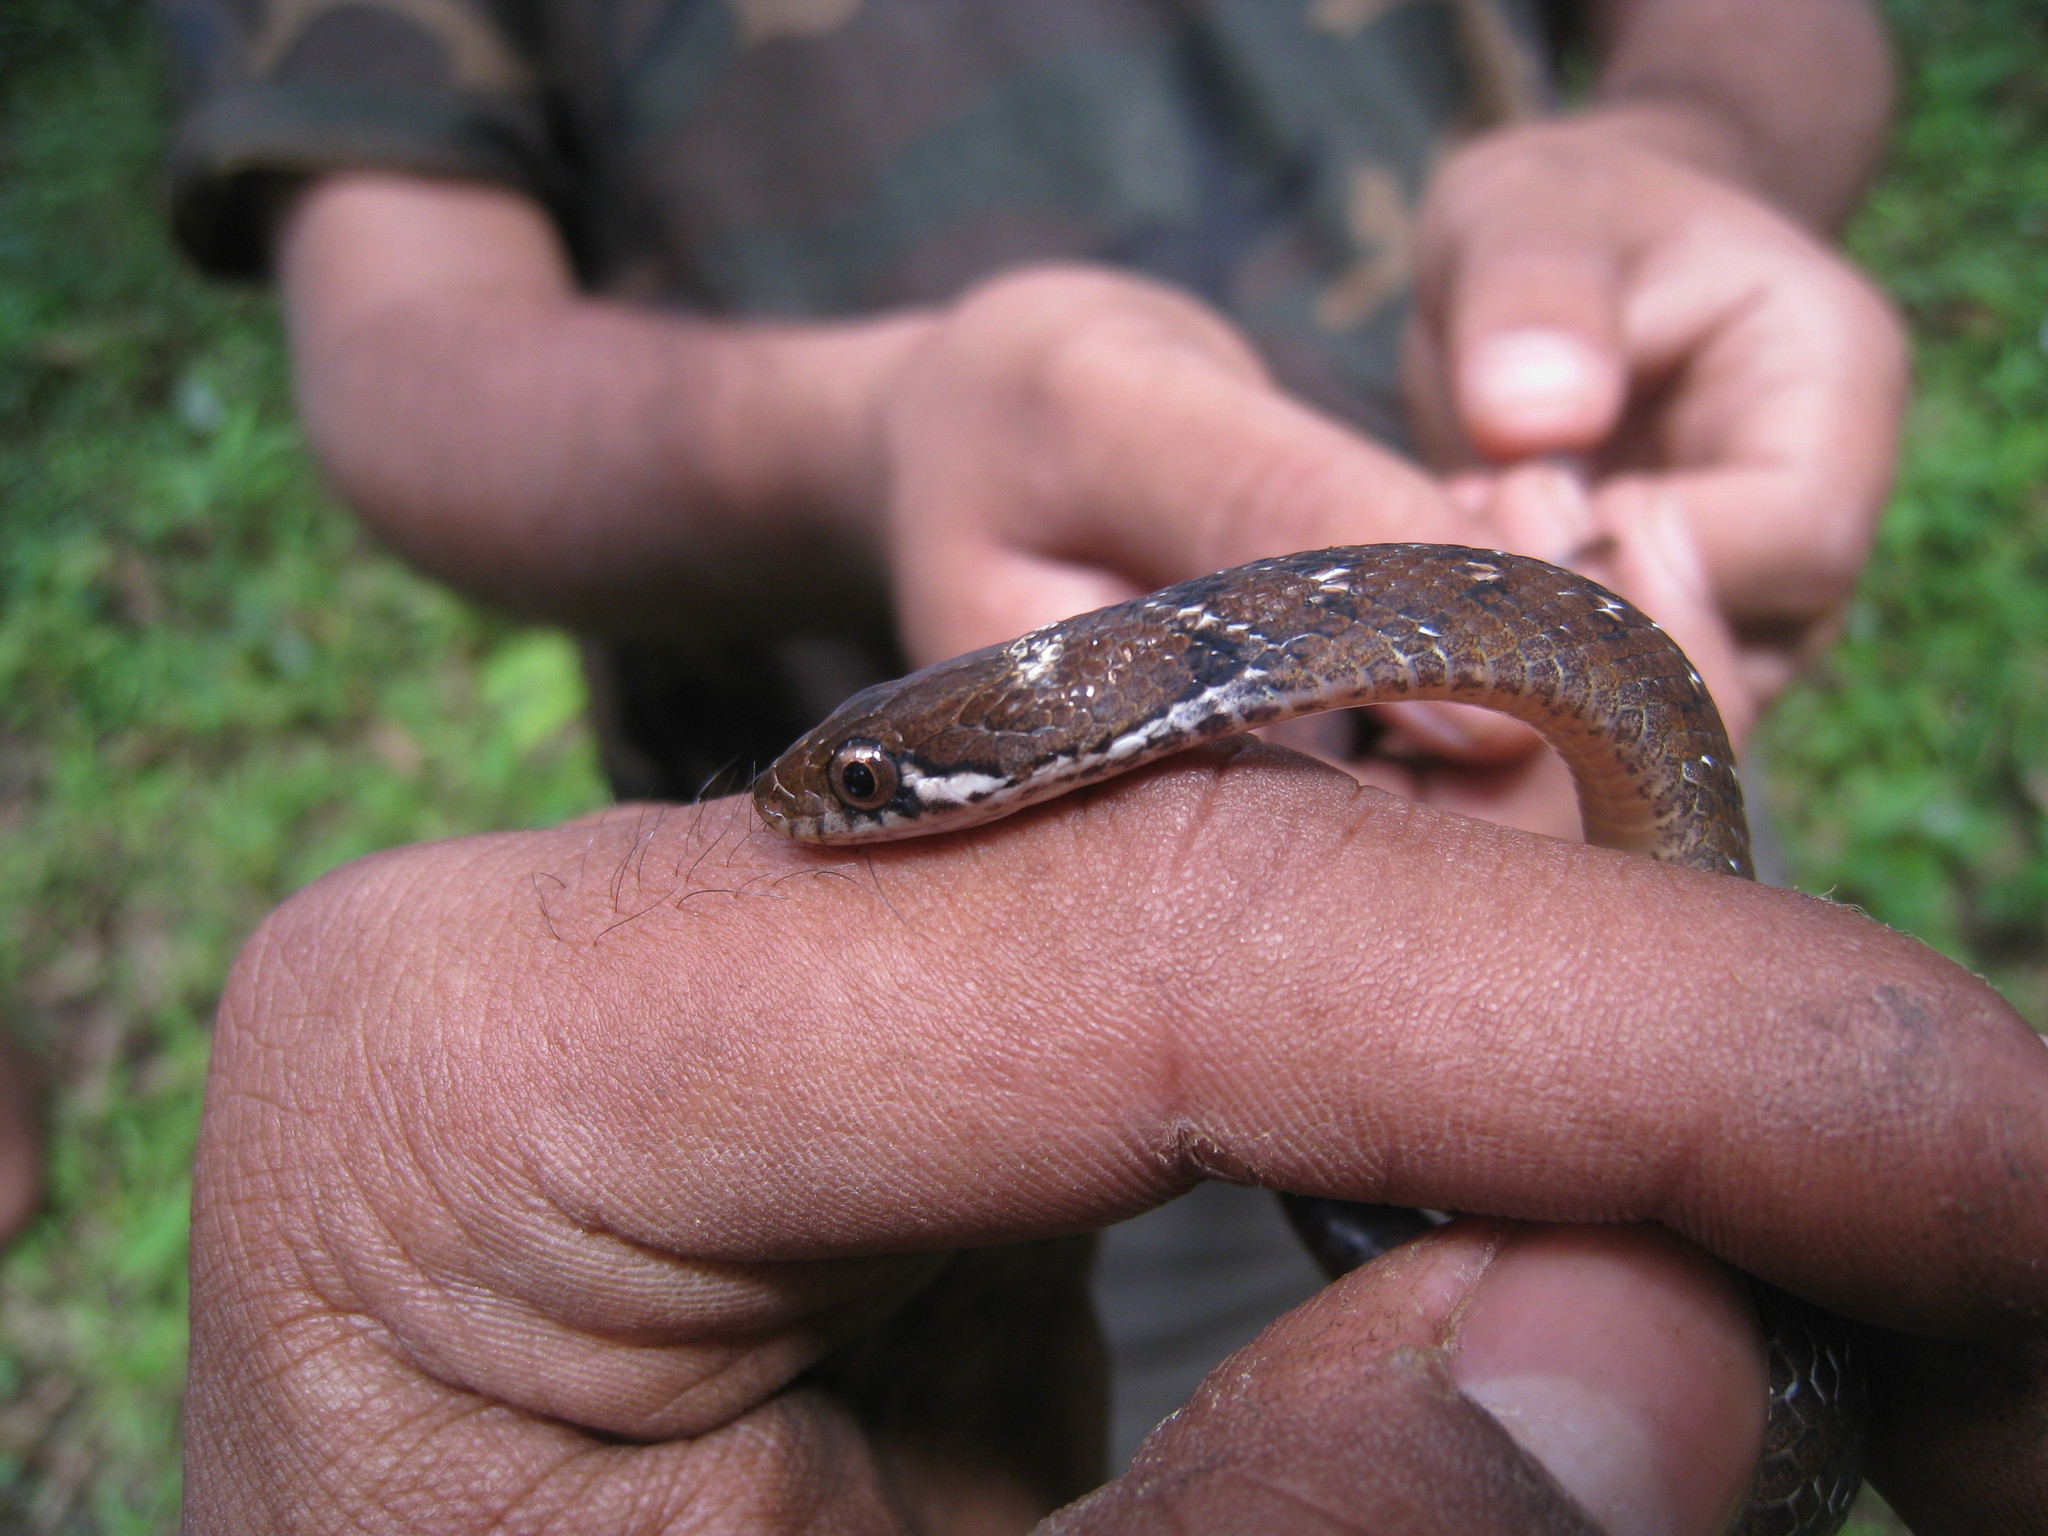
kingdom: Animalia
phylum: Chordata
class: Squamata
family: Colubridae
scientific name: Colubridae
